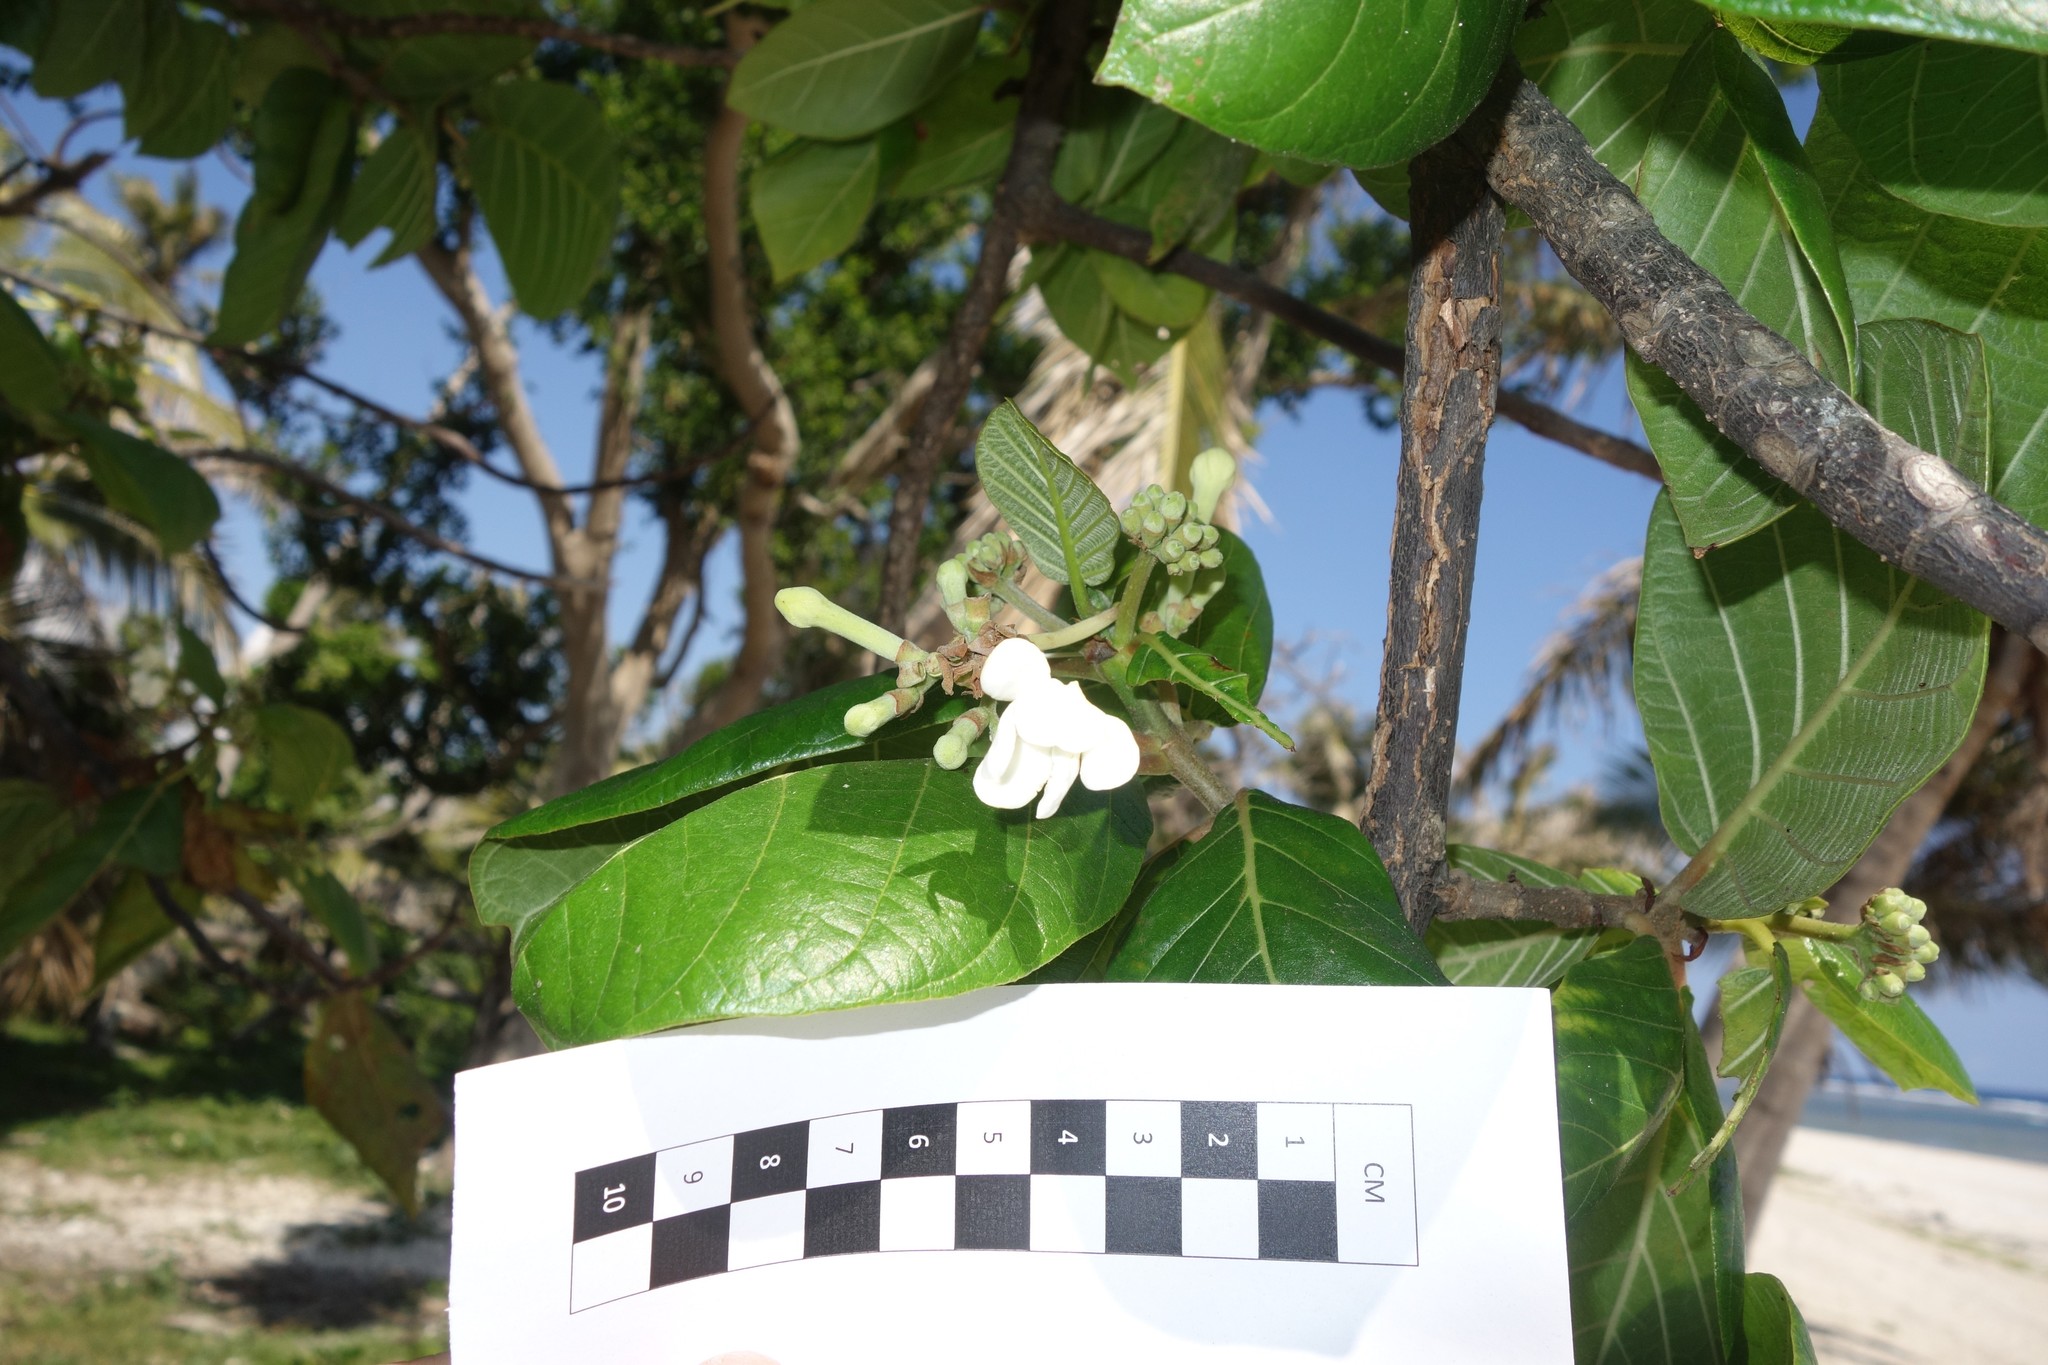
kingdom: Plantae
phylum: Tracheophyta
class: Magnoliopsida
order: Gentianales
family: Rubiaceae
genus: Guettarda
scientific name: Guettarda speciosa
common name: Sea randa
